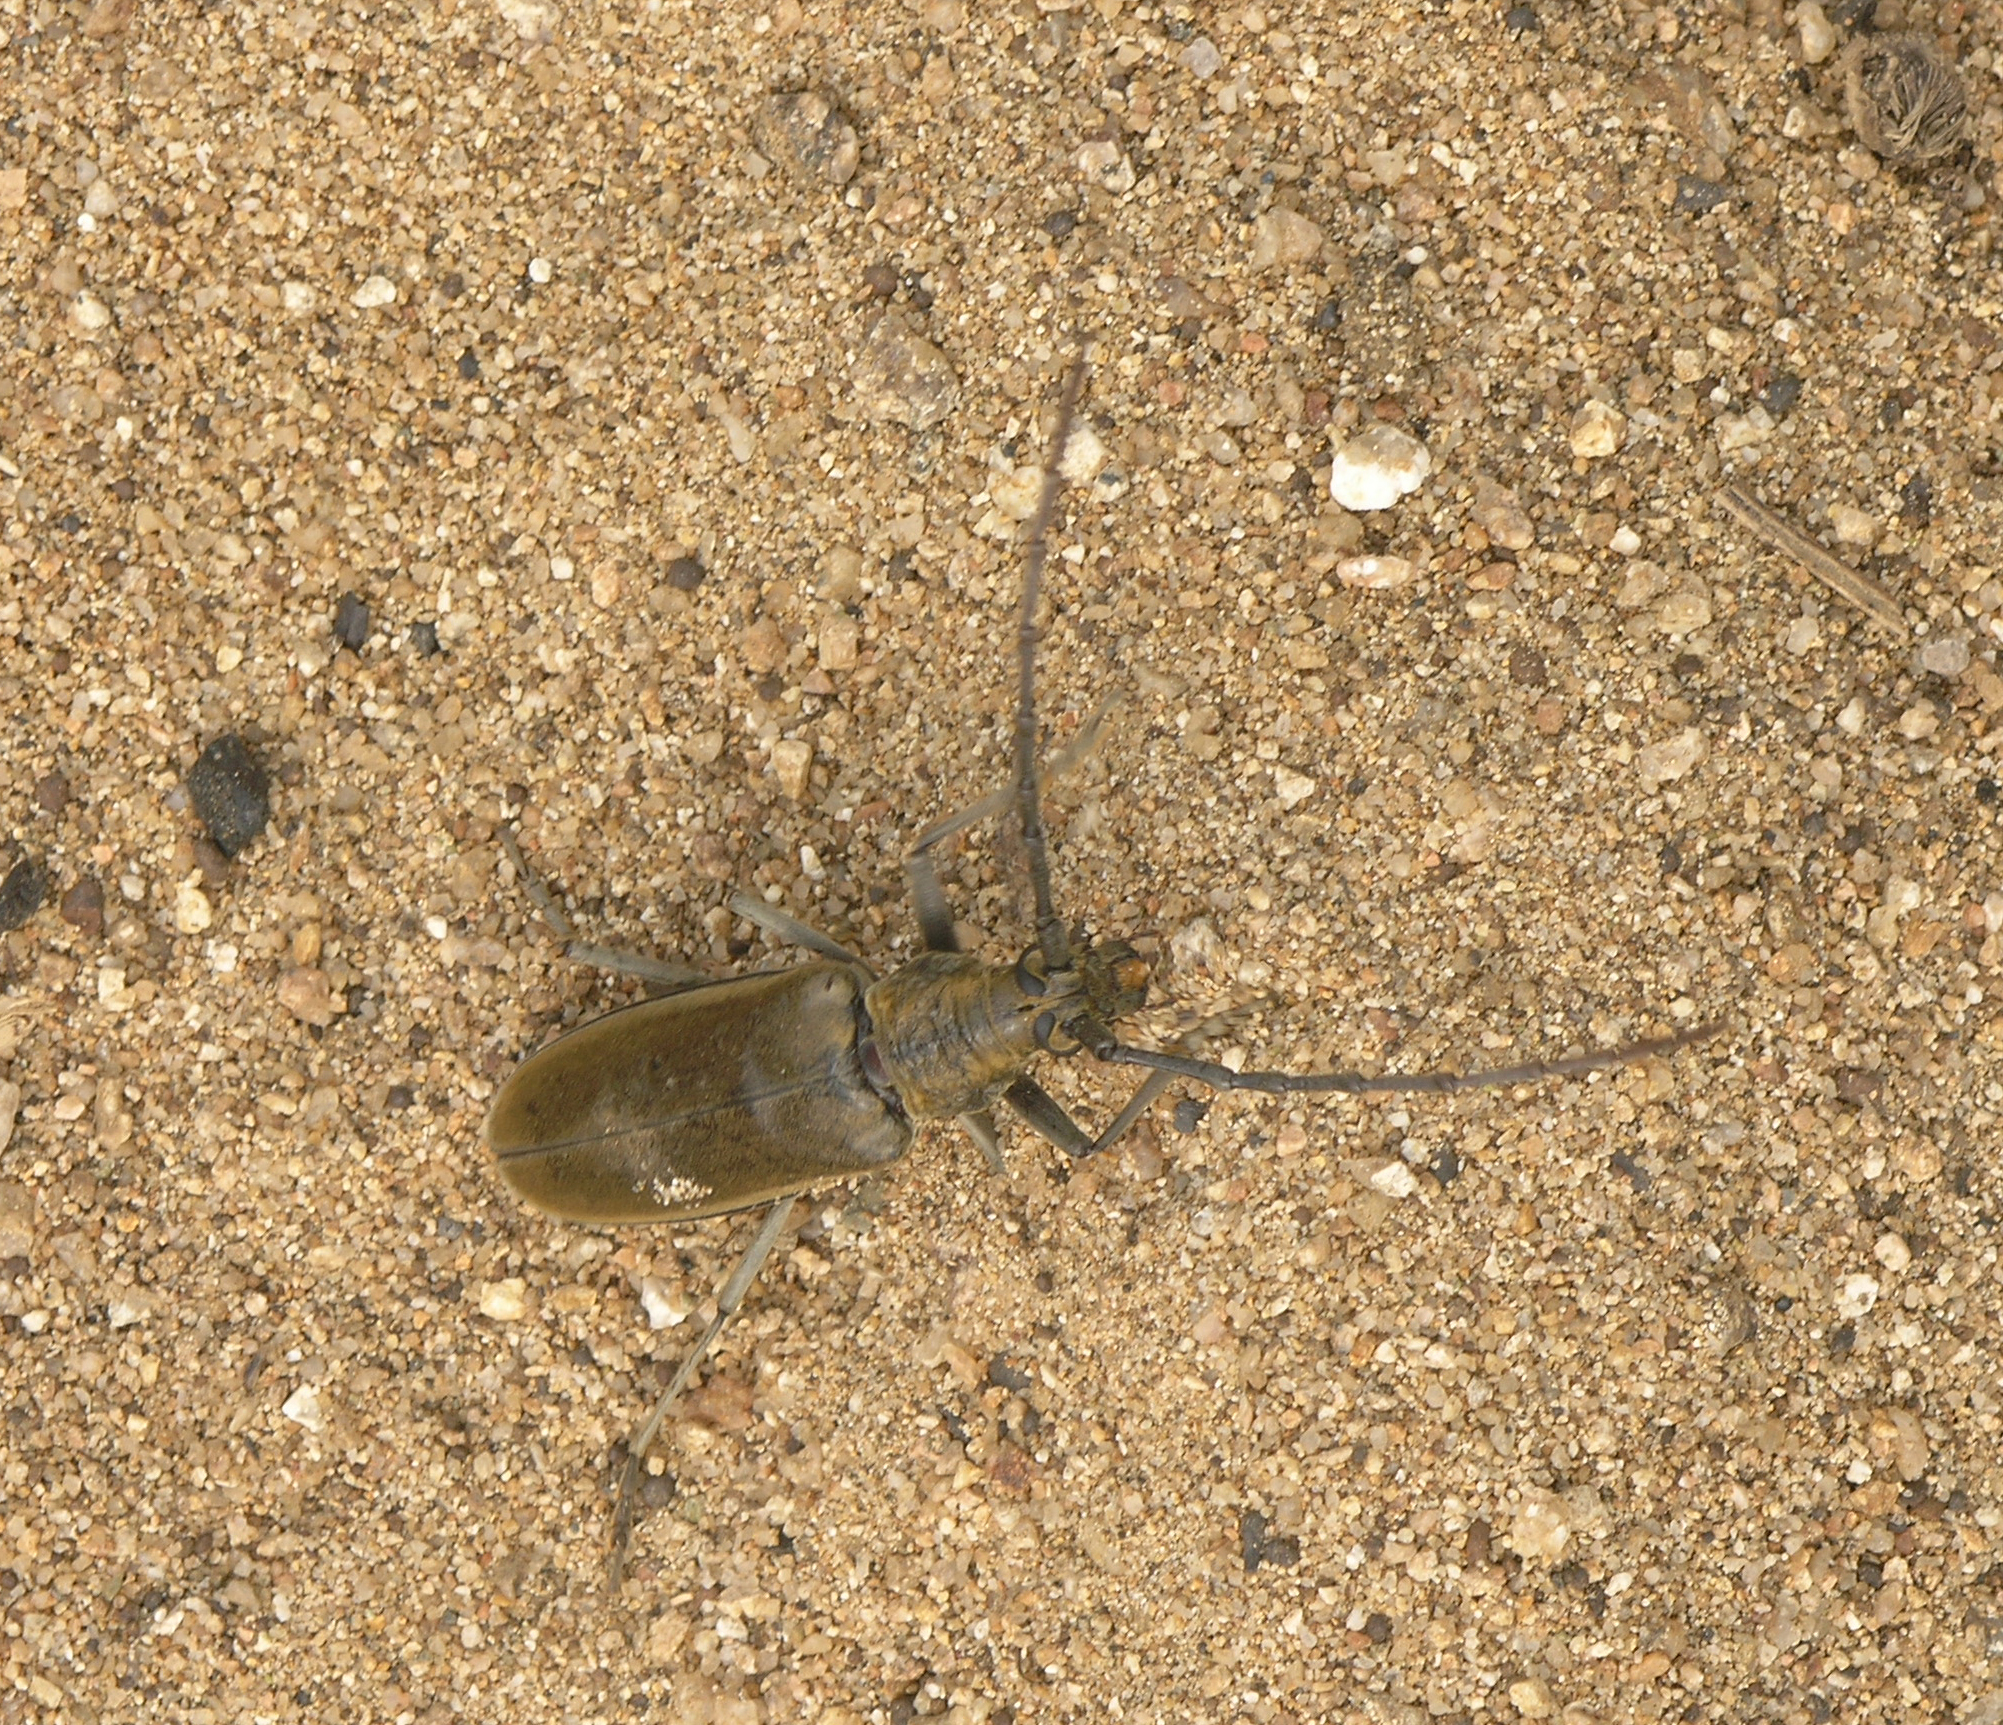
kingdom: Animalia
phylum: Arthropoda
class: Insecta
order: Coleoptera
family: Cerambycidae
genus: Neocerambyx
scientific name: Neocerambyx raddei
